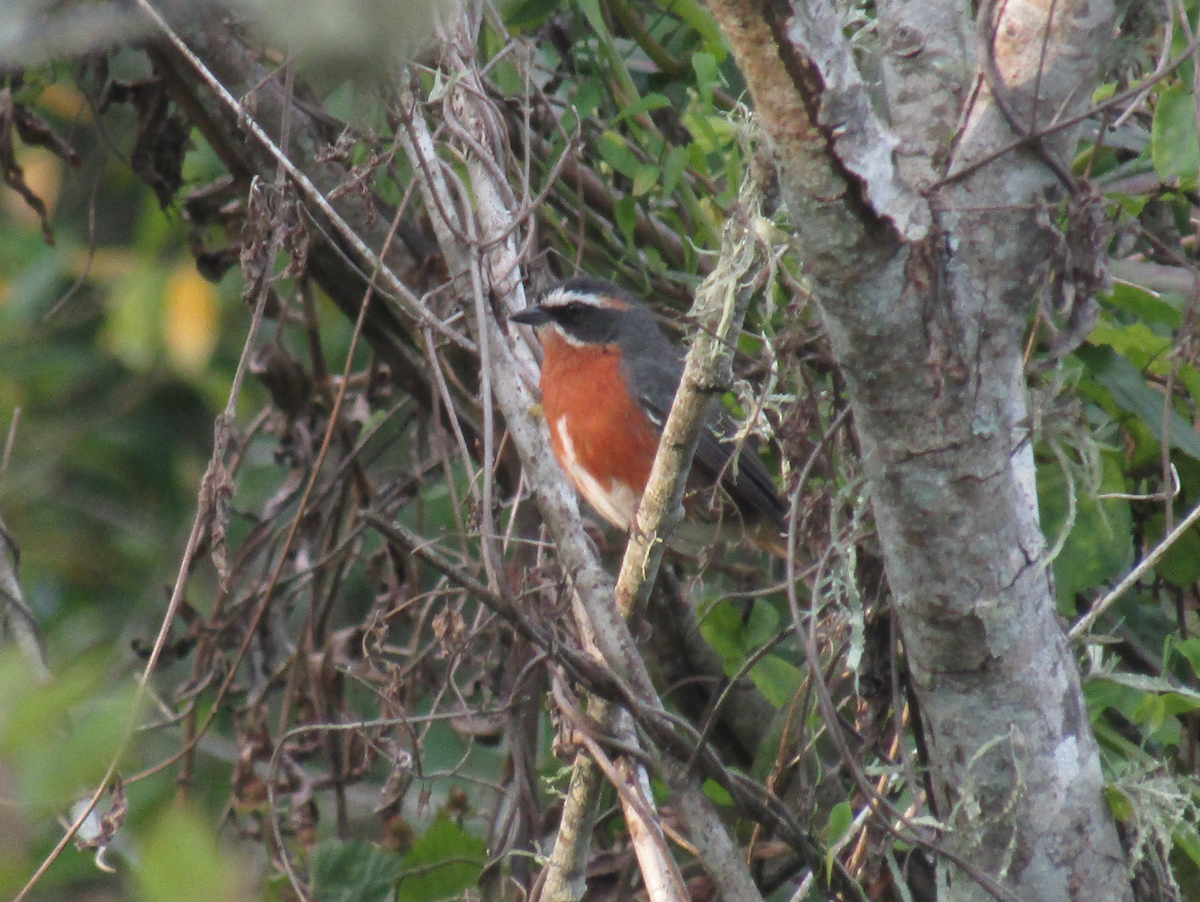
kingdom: Animalia
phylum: Chordata
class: Aves
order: Passeriformes
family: Thraupidae
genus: Poospiza
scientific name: Poospiza nigrorufa
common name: Black-and-rufous warbling finch
